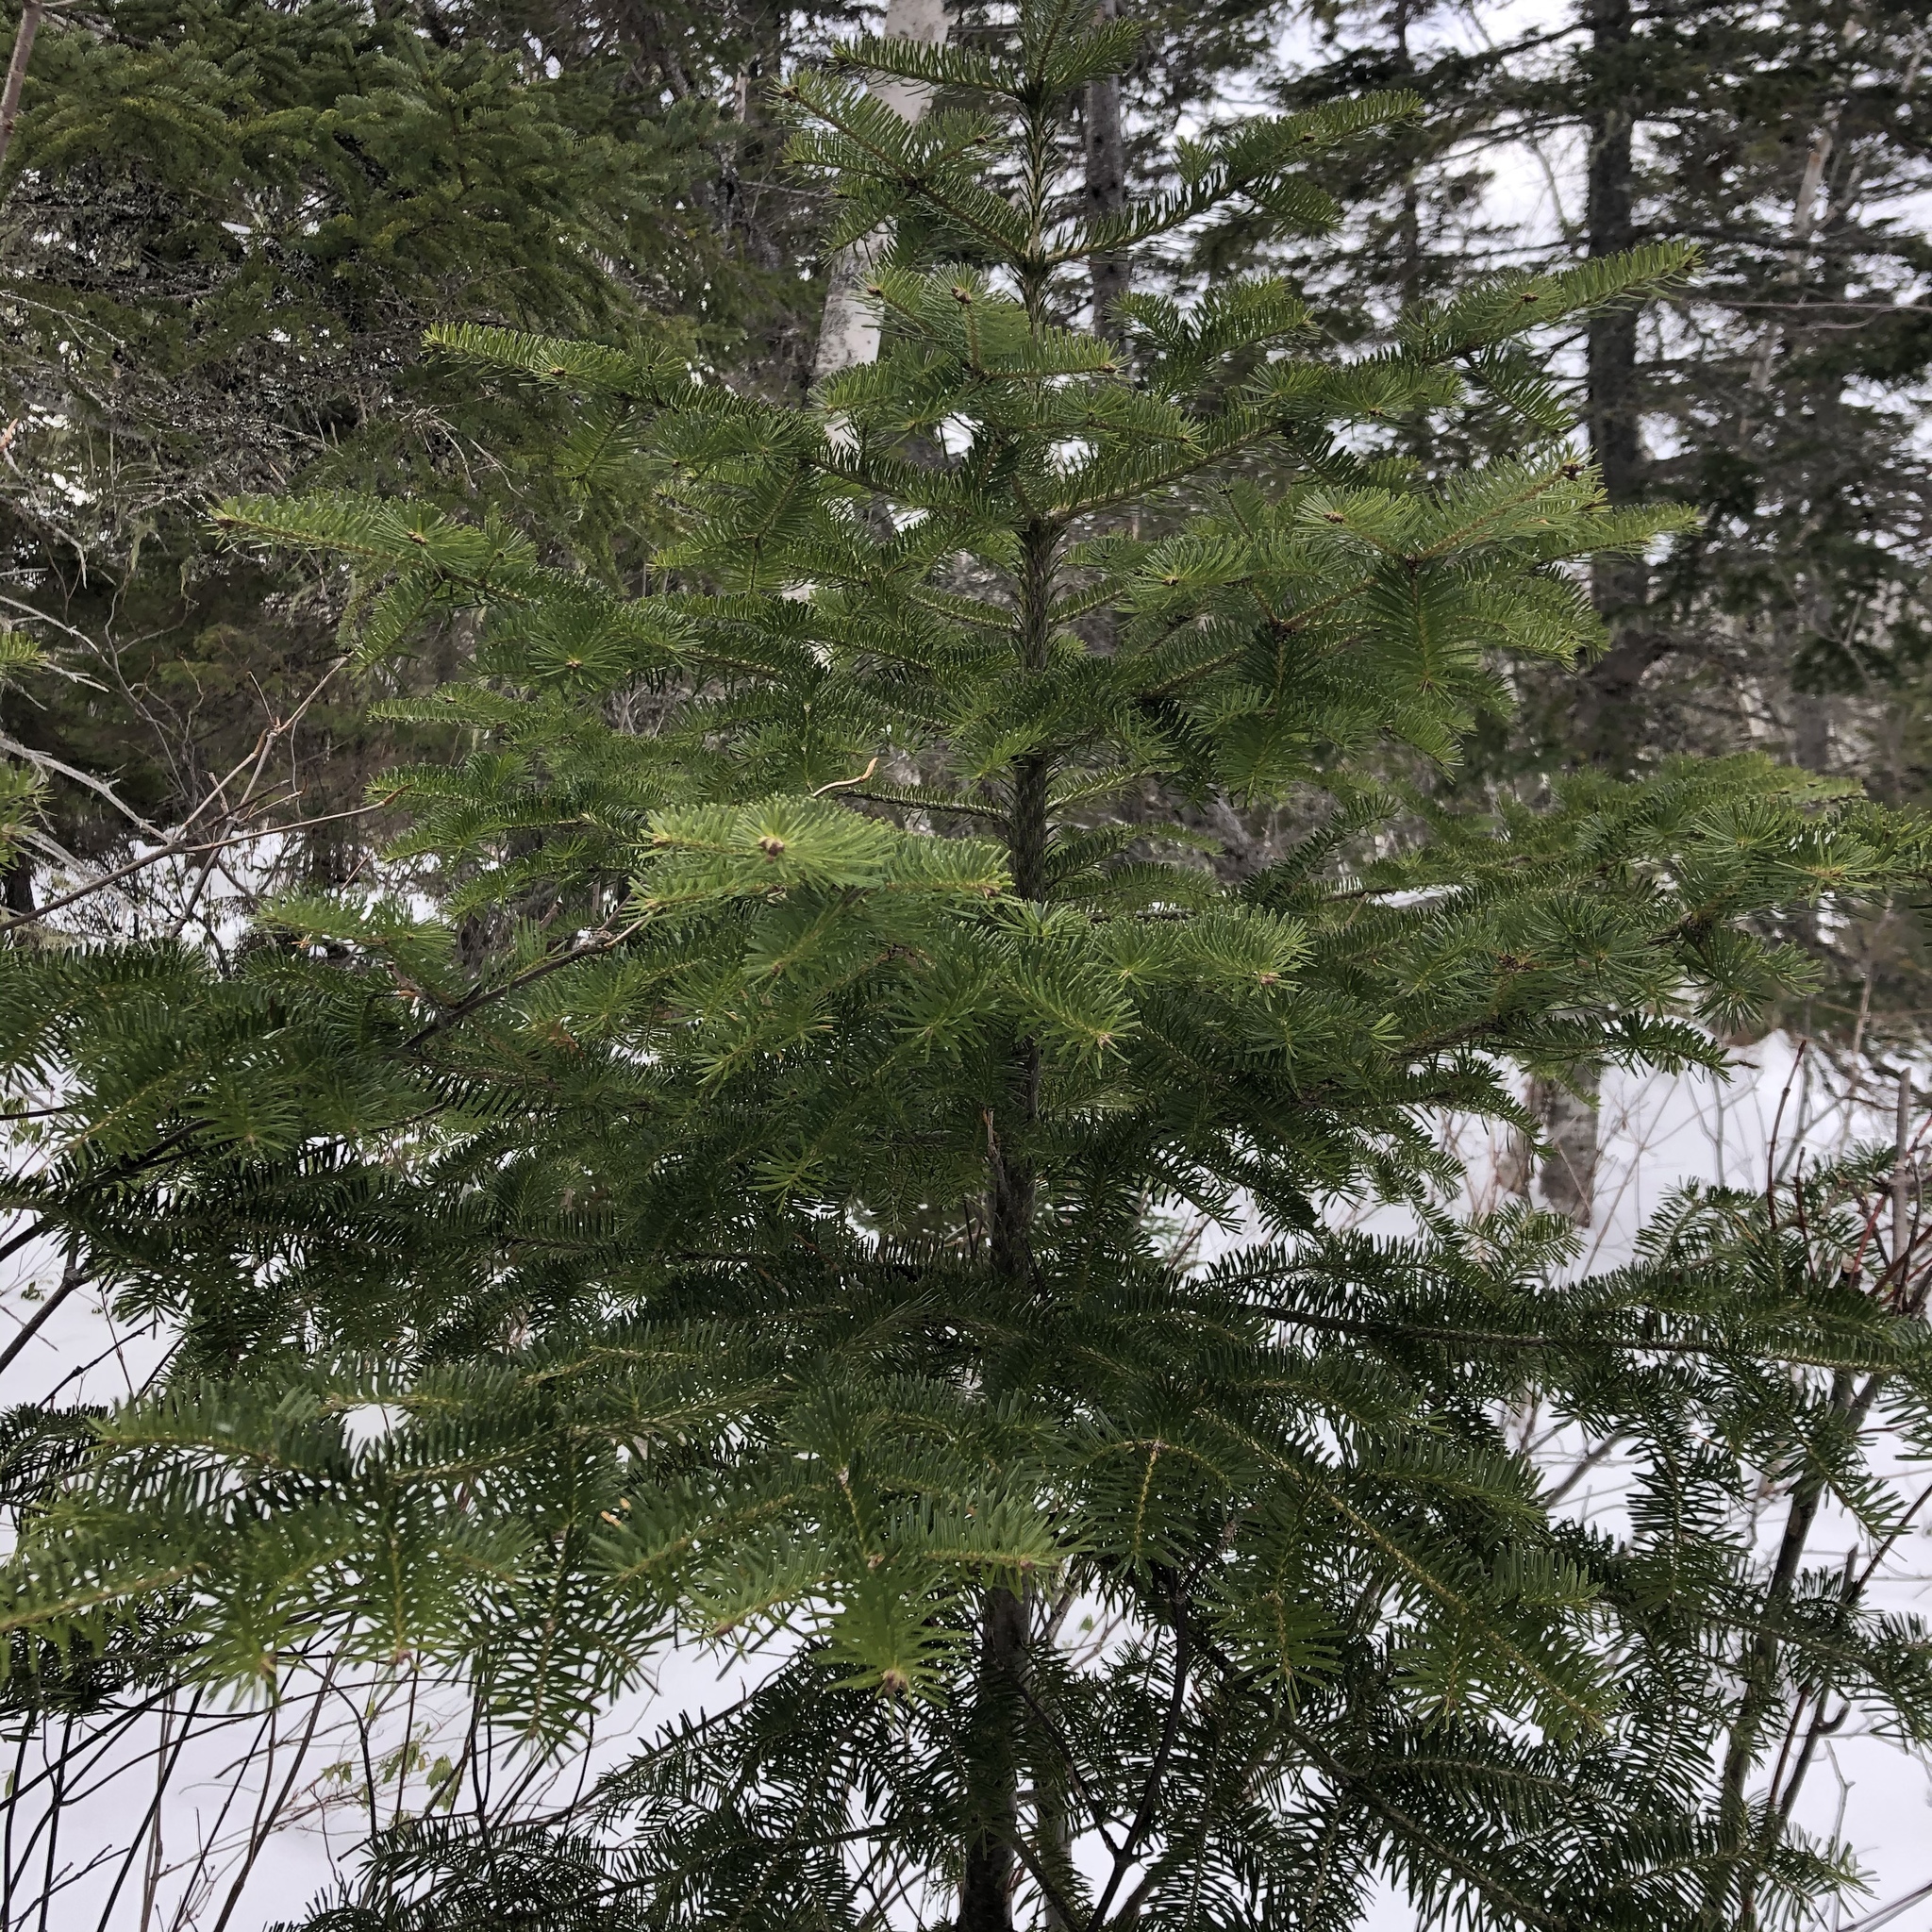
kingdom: Plantae
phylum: Tracheophyta
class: Pinopsida
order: Pinales
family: Pinaceae
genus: Abies
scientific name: Abies balsamea
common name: Balsam fir
